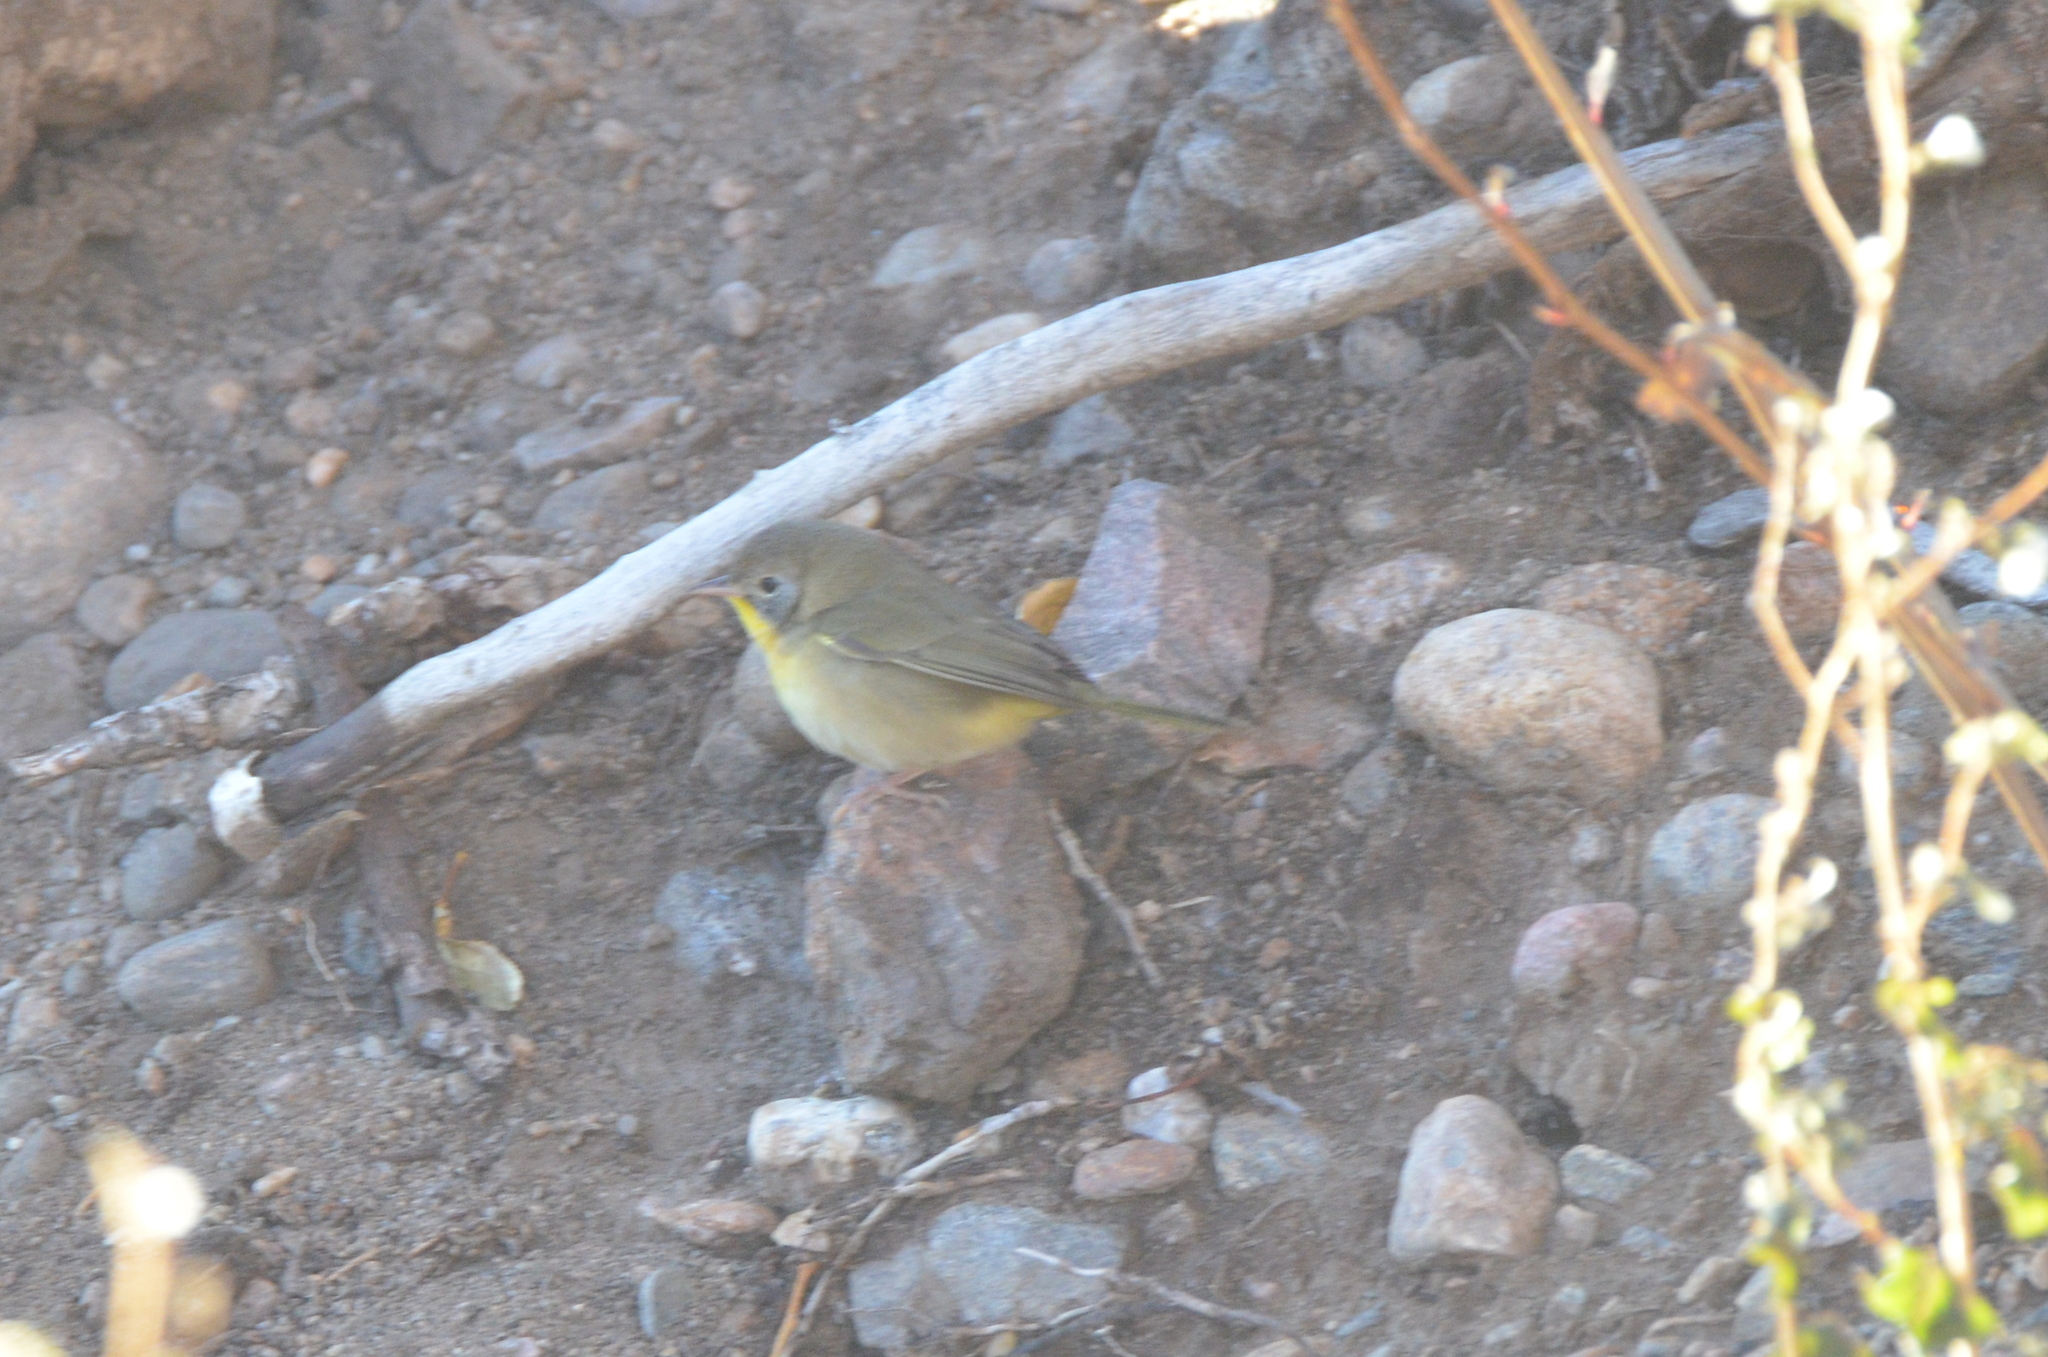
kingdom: Animalia
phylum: Chordata
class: Aves
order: Passeriformes
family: Parulidae
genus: Geothlypis
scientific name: Geothlypis trichas
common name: Common yellowthroat
